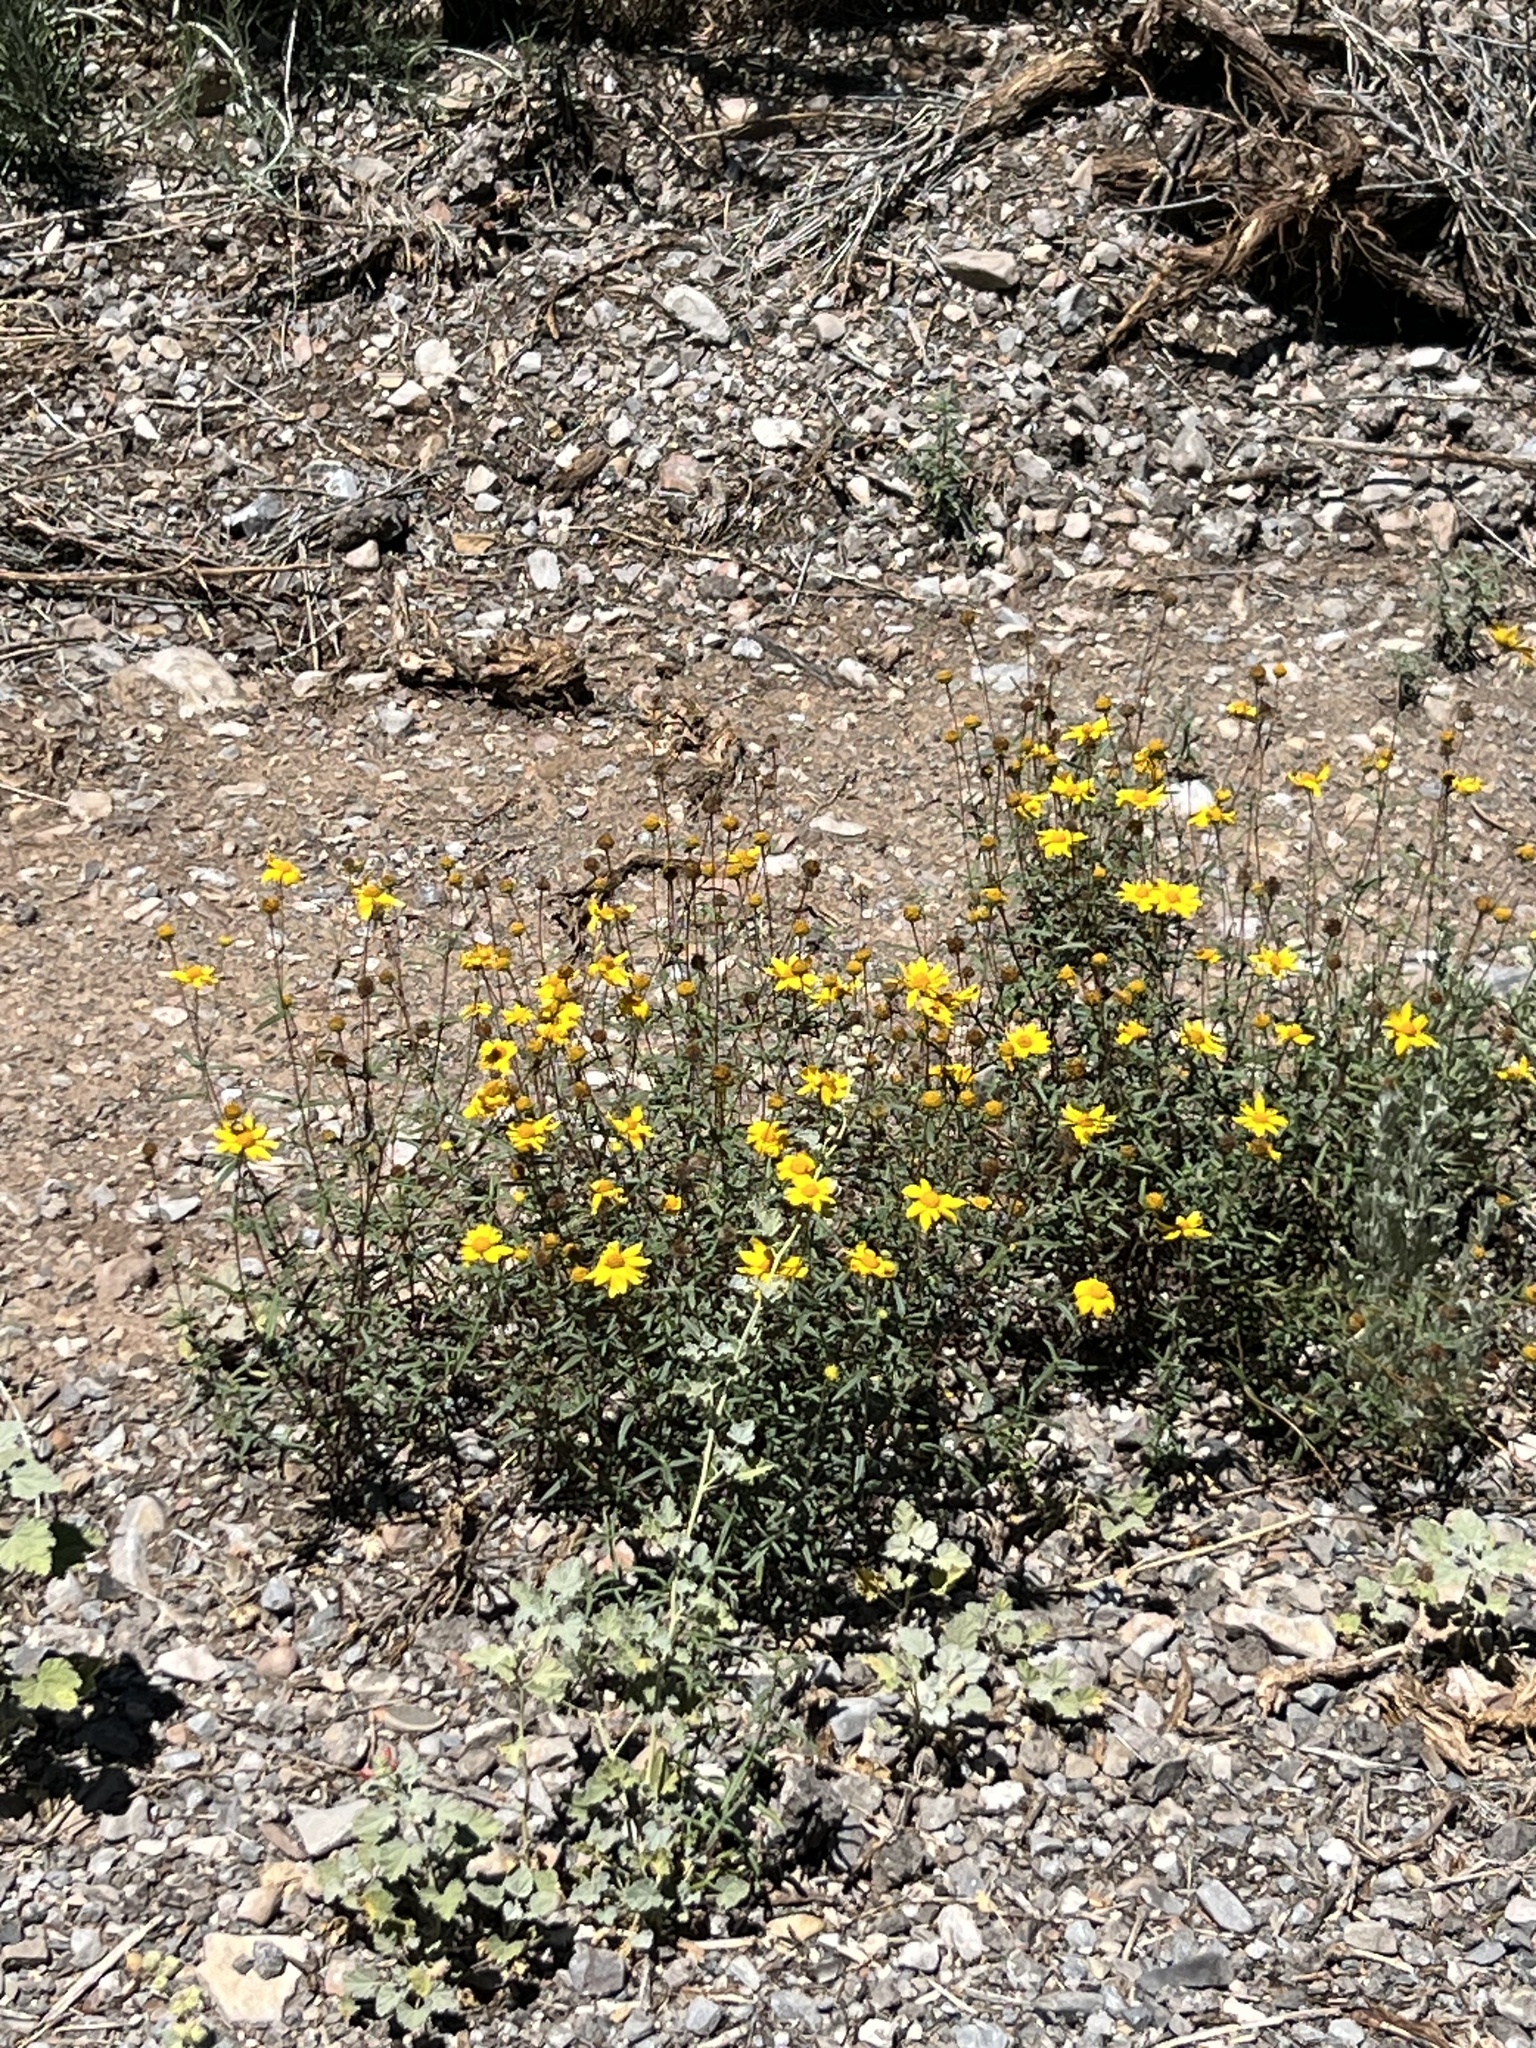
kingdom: Plantae
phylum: Tracheophyta
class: Magnoliopsida
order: Asterales
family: Asteraceae
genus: Heliomeris
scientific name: Heliomeris multiflora
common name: Showy goldeneye
